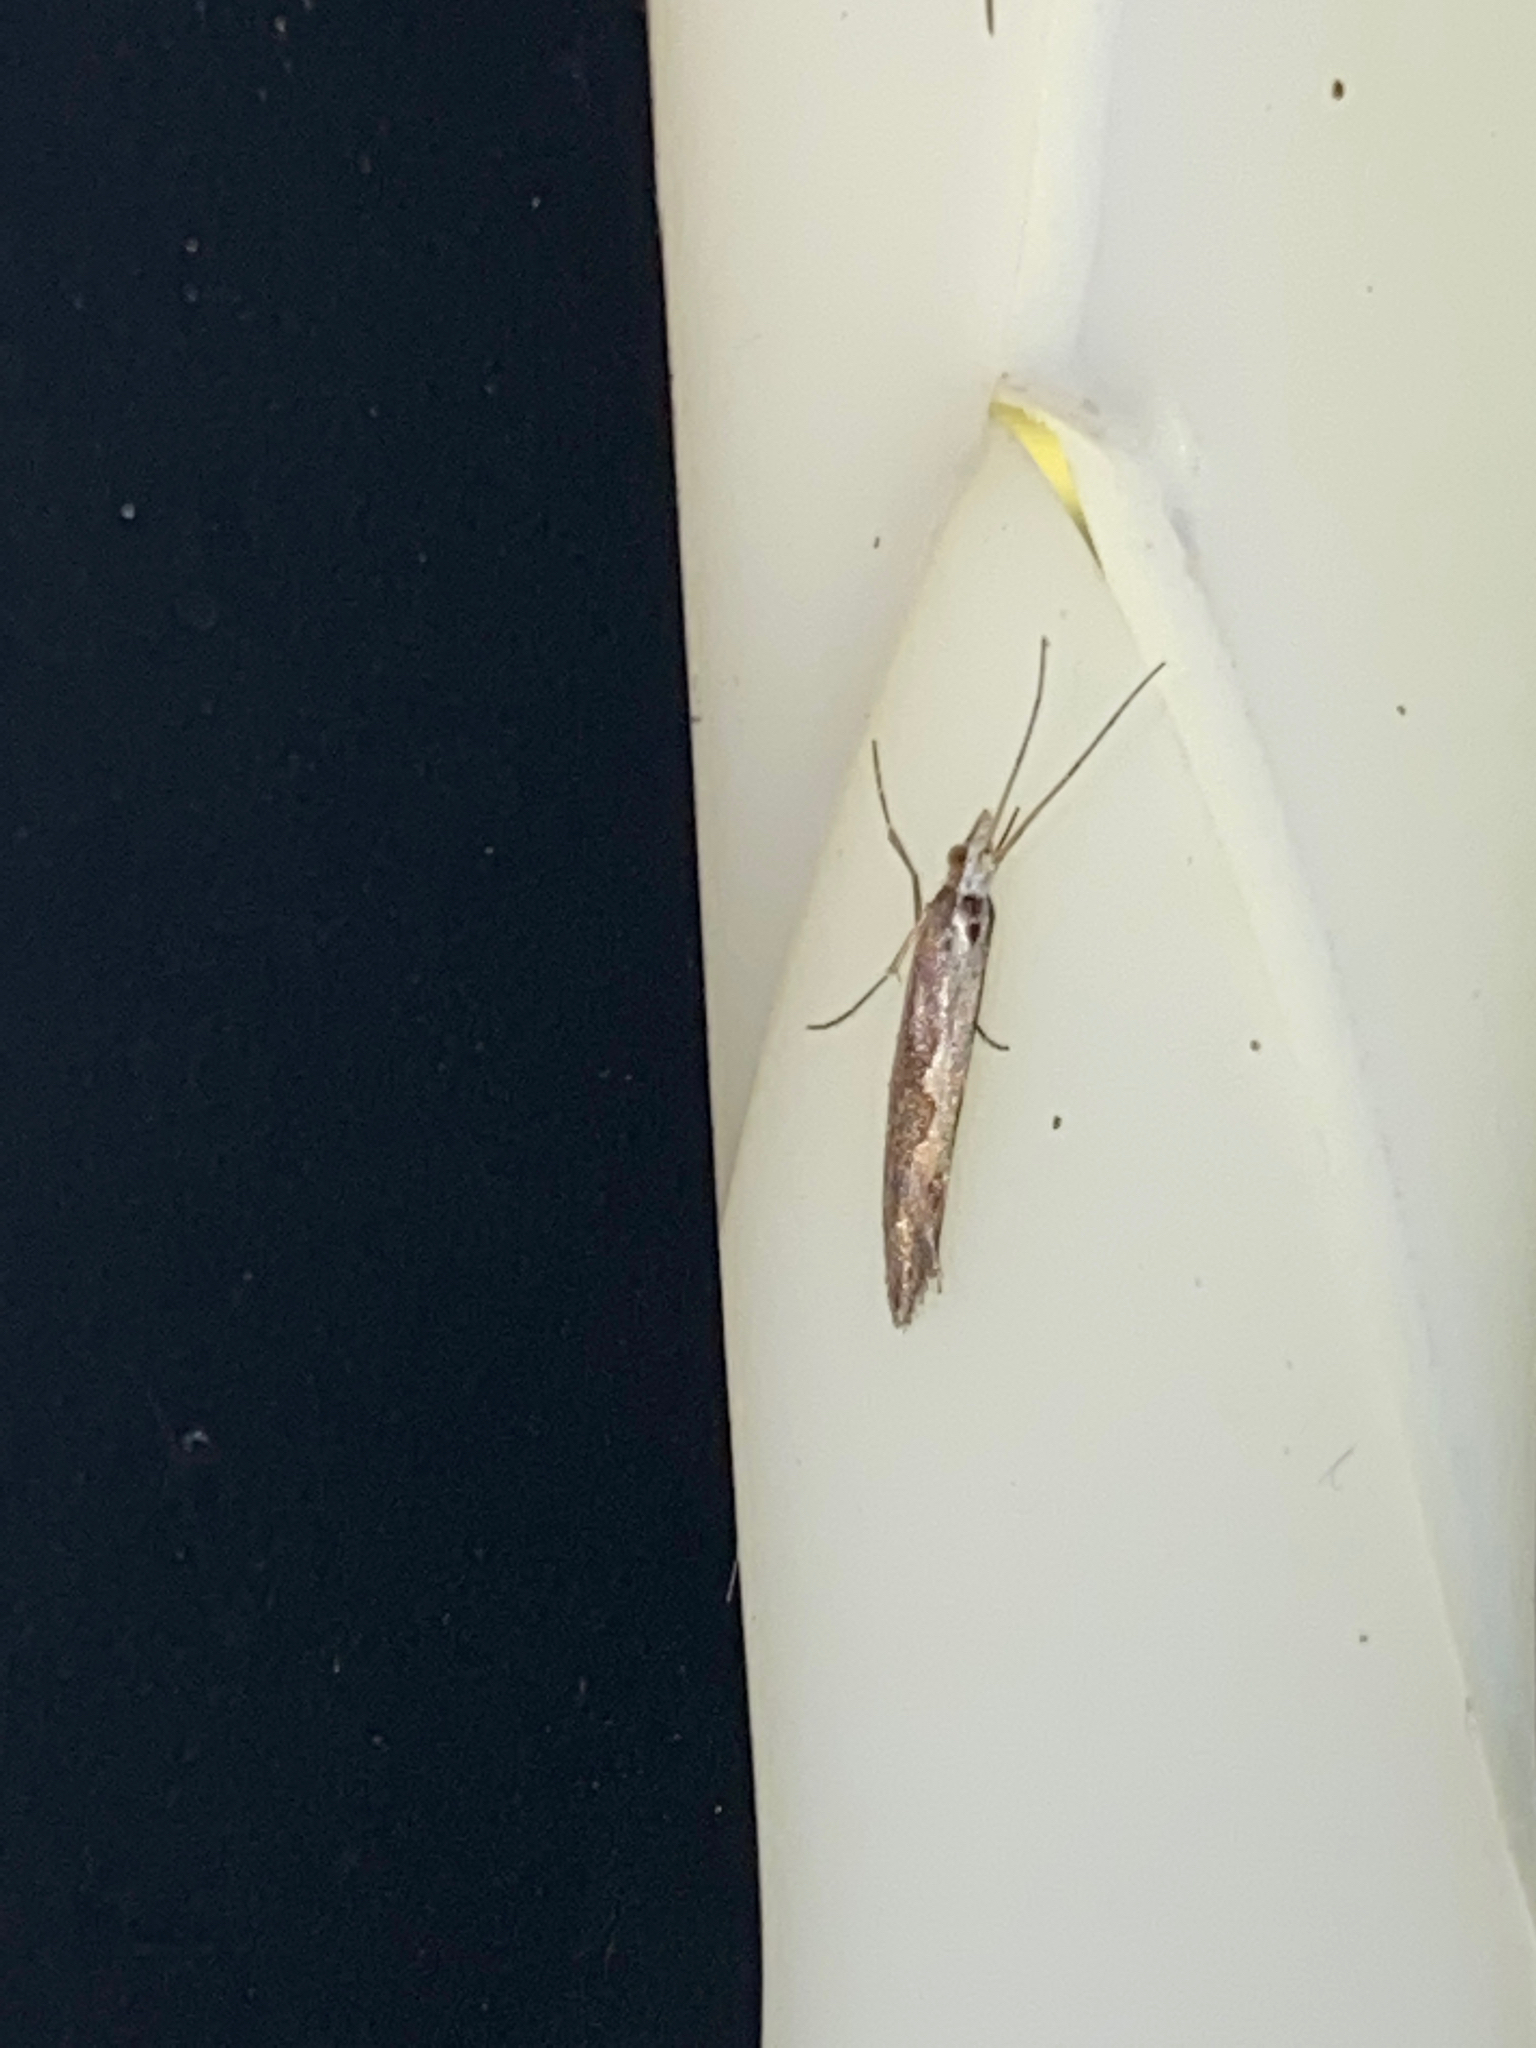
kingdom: Animalia
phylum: Arthropoda
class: Insecta
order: Lepidoptera
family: Plutellidae
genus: Plutella
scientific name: Plutella xylostella
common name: Diamond-back moth
